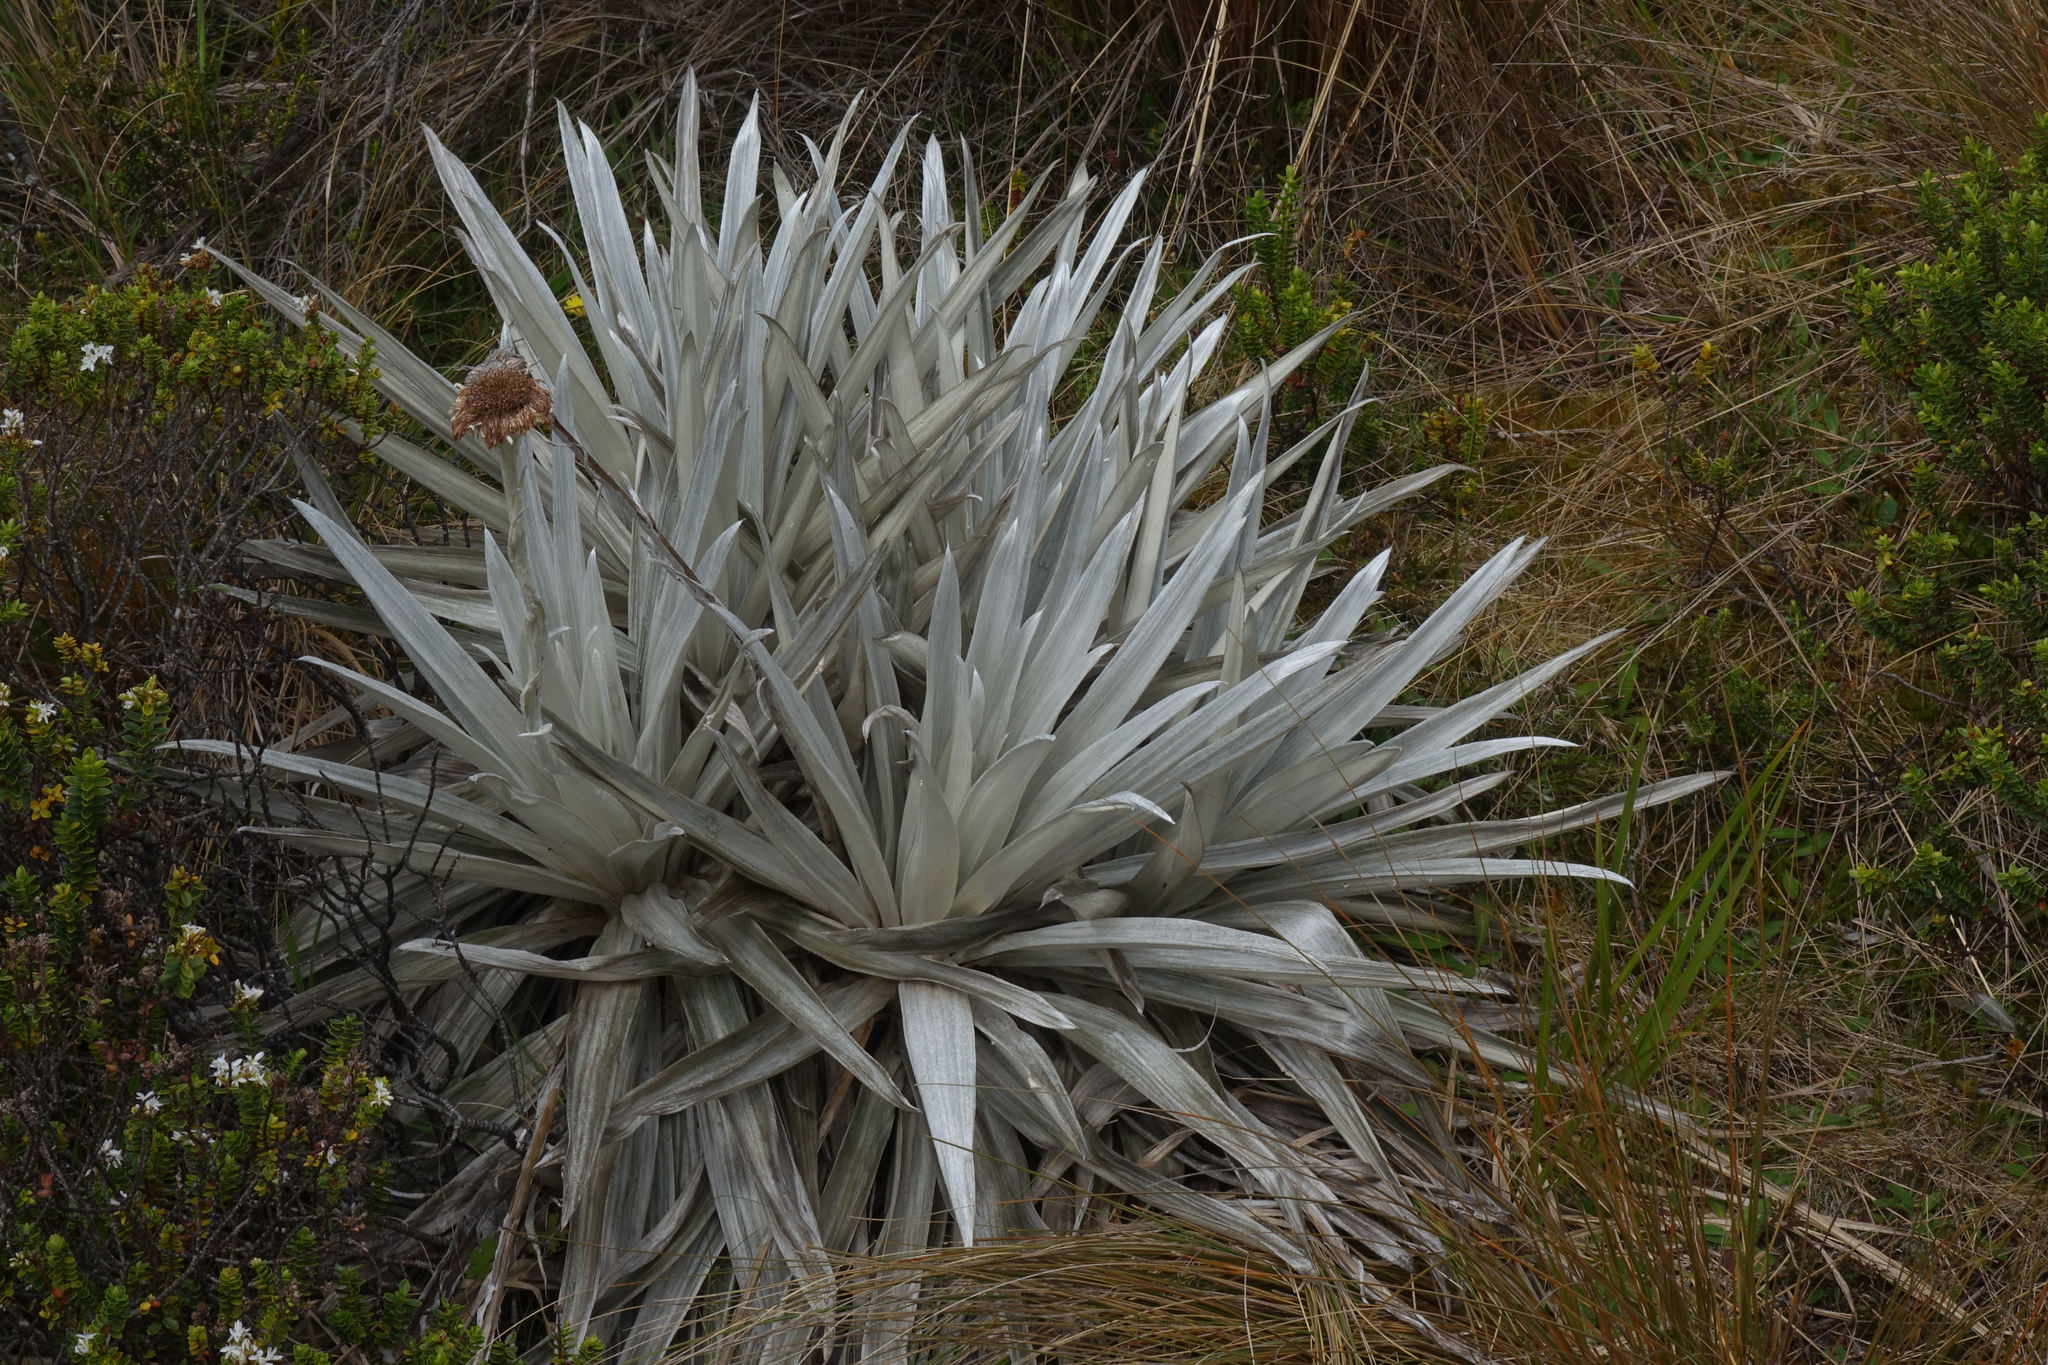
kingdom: Plantae
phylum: Tracheophyta
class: Magnoliopsida
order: Asterales
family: Asteraceae
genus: Celmisia
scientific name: Celmisia semicordata
